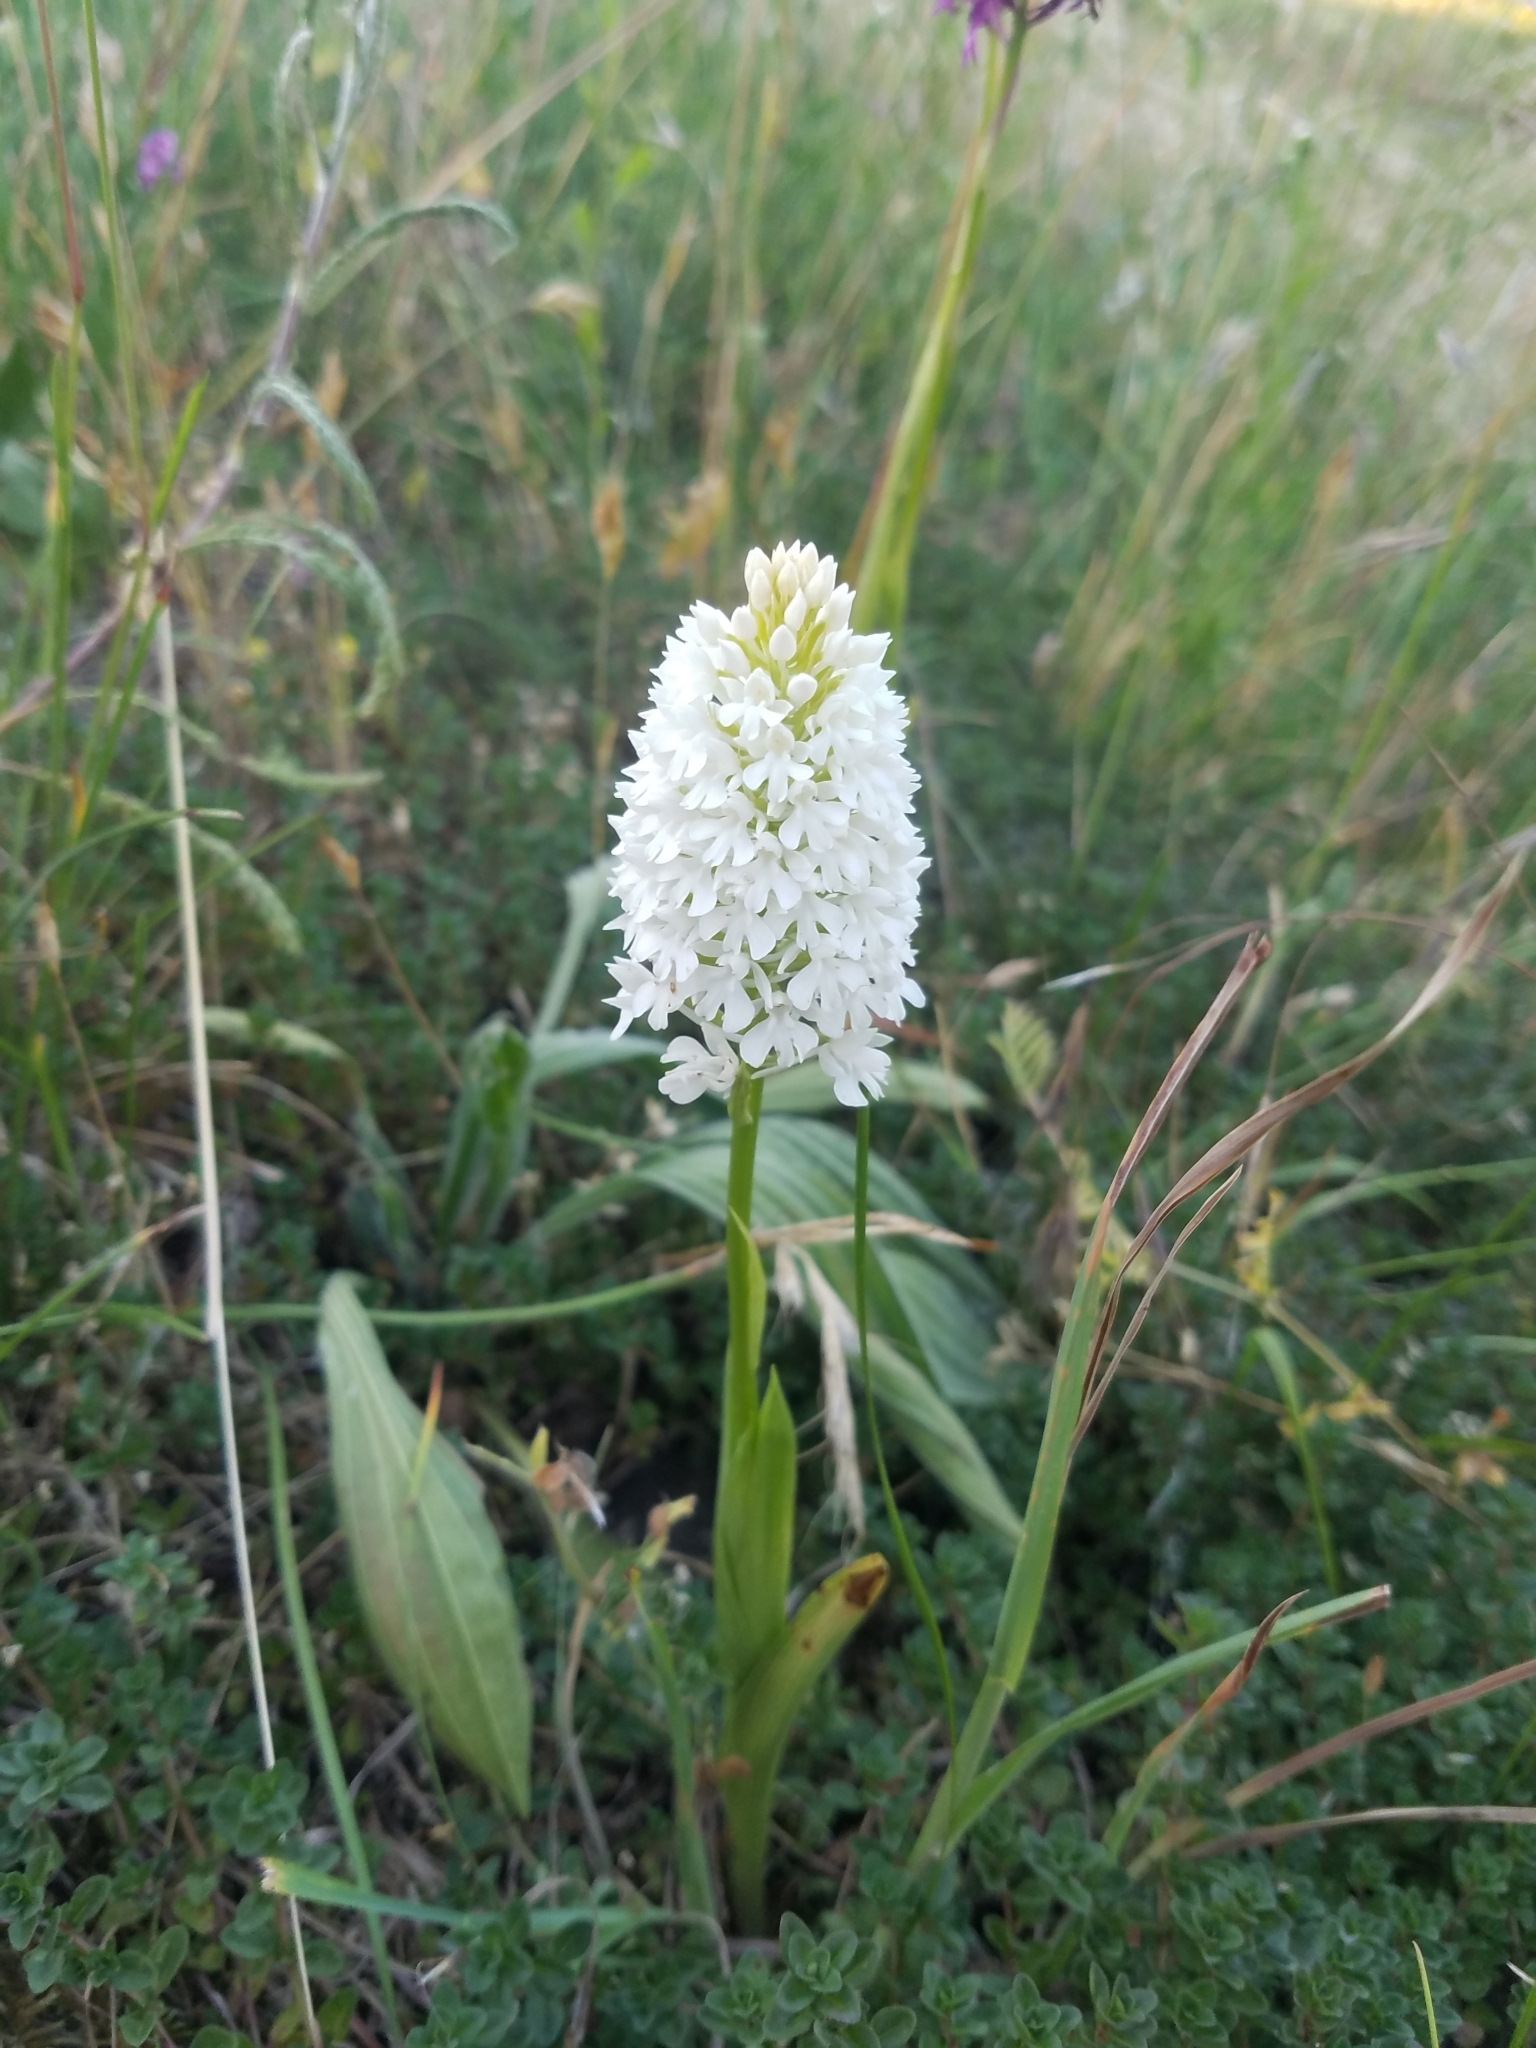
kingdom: Plantae
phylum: Tracheophyta
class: Liliopsida
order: Asparagales
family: Orchidaceae
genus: Anacamptis
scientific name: Anacamptis pyramidalis
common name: Pyramidal orchid
